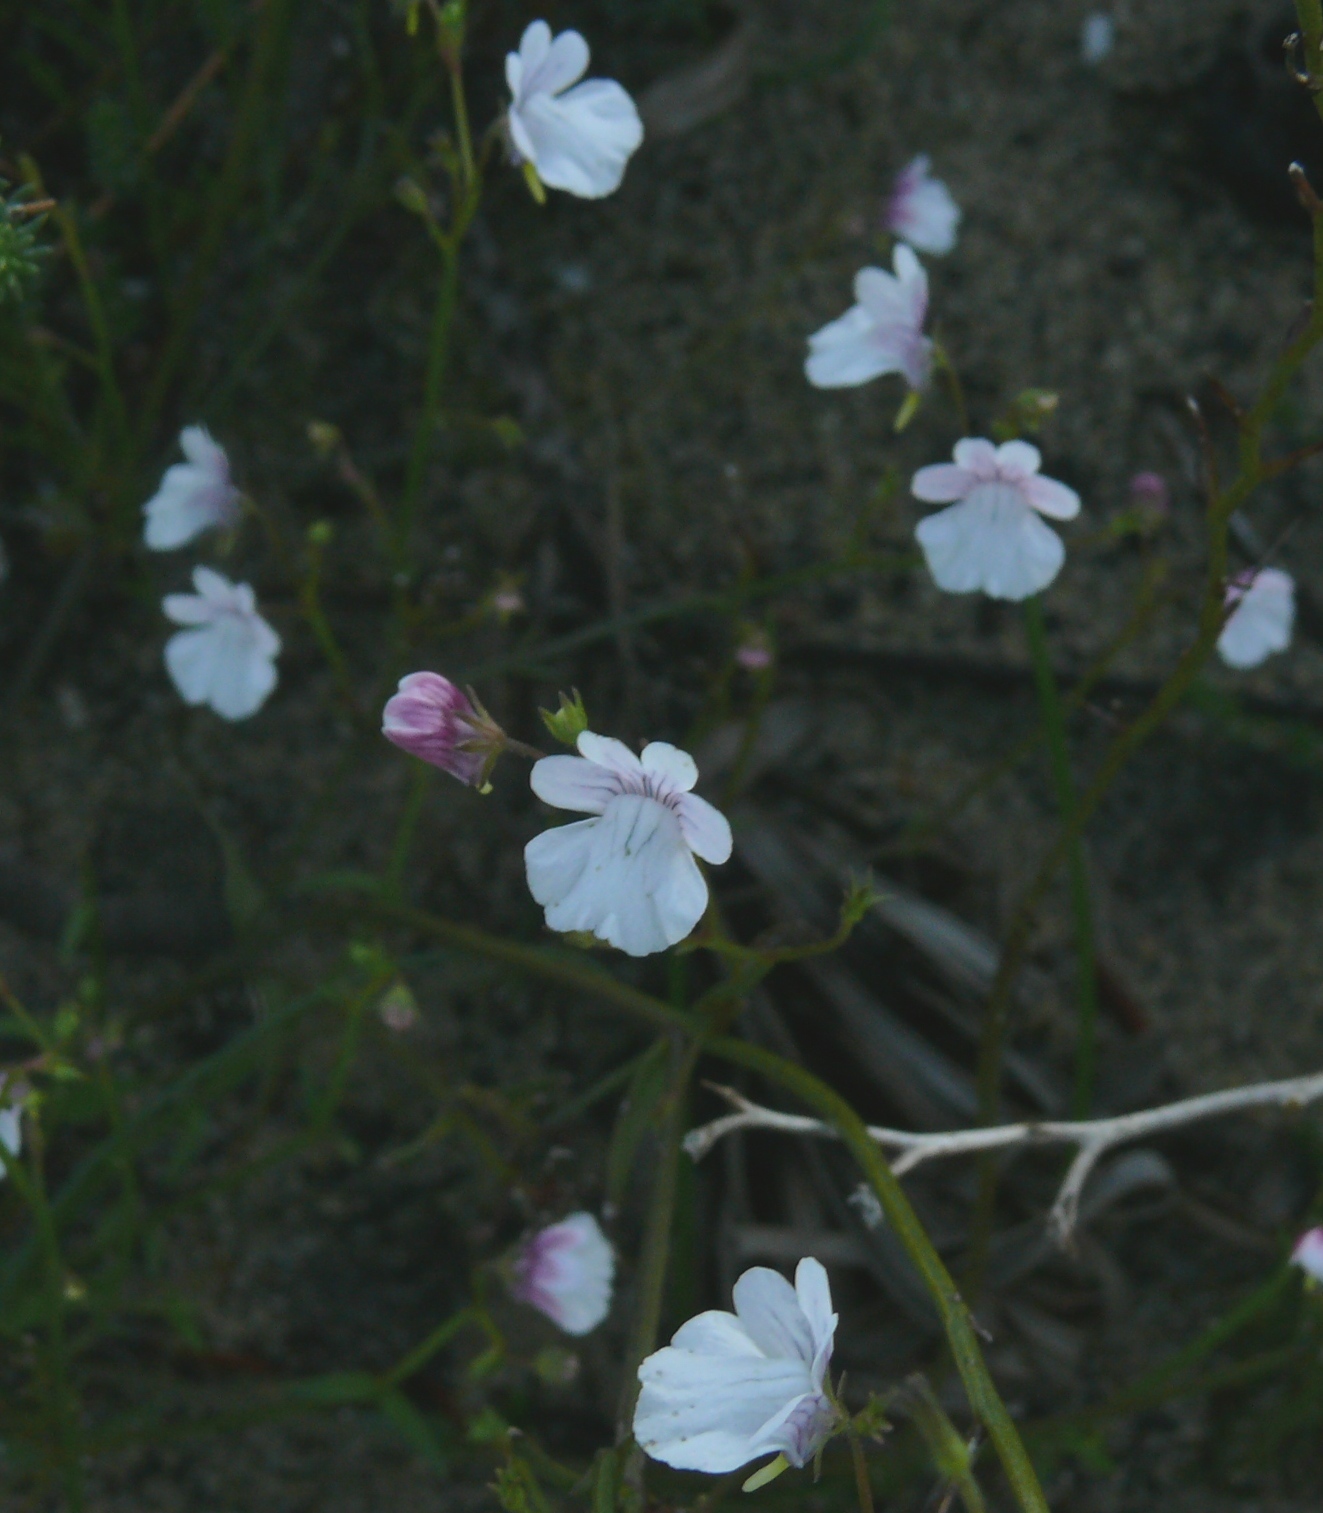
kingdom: Plantae
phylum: Tracheophyta
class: Magnoliopsida
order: Lamiales
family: Scrophulariaceae
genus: Nemesia
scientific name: Nemesia diffusa
